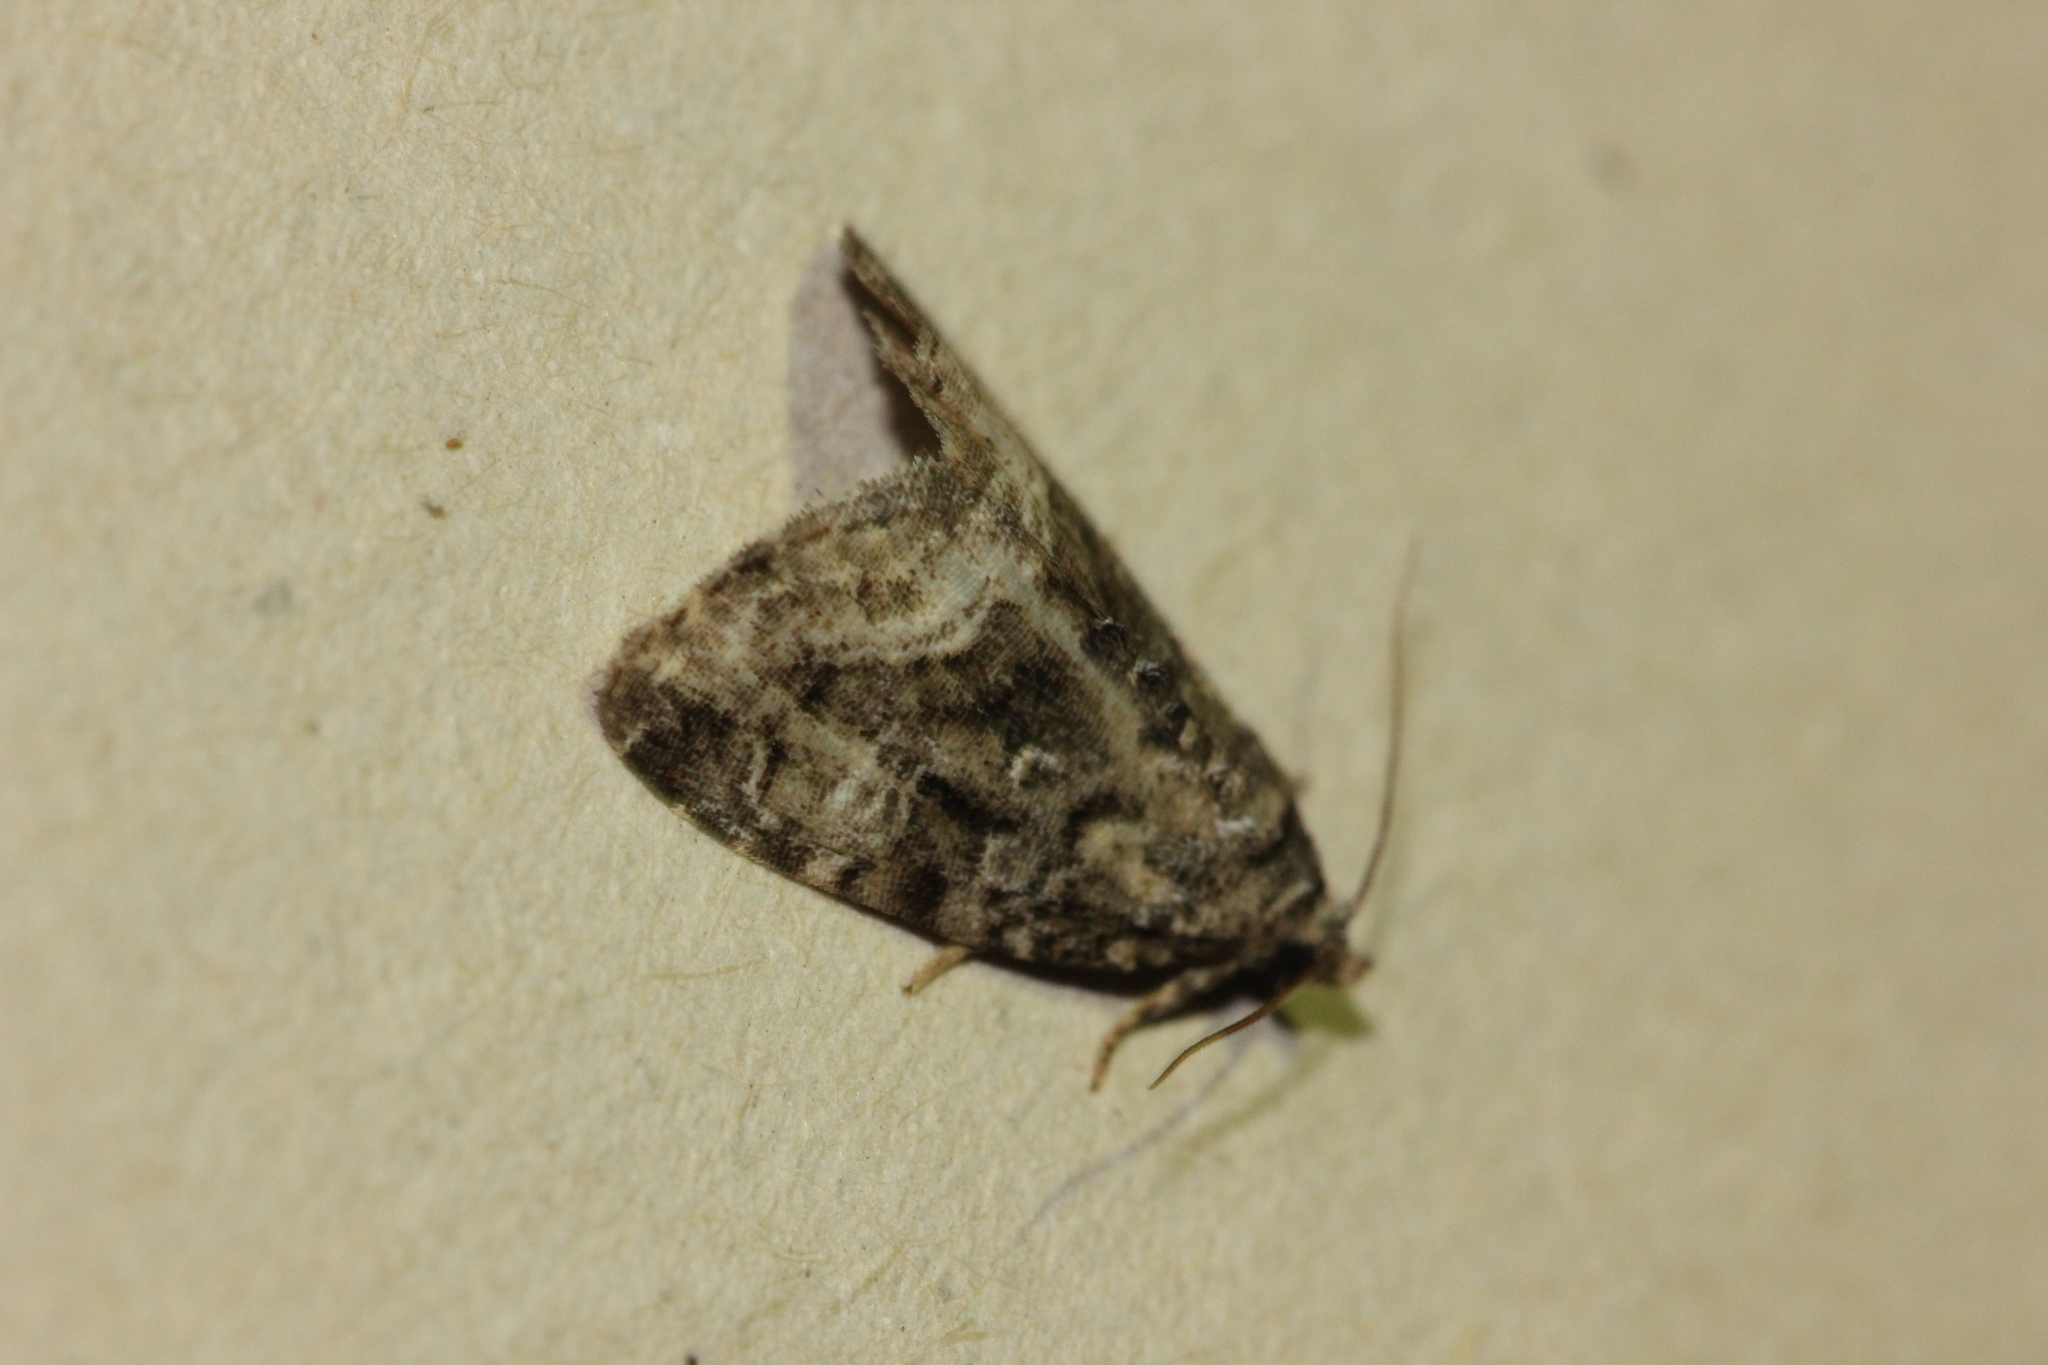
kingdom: Animalia
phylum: Arthropoda
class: Insecta
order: Lepidoptera
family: Noctuidae
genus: Protodeltote
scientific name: Protodeltote muscosula
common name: Large mossy glyph
